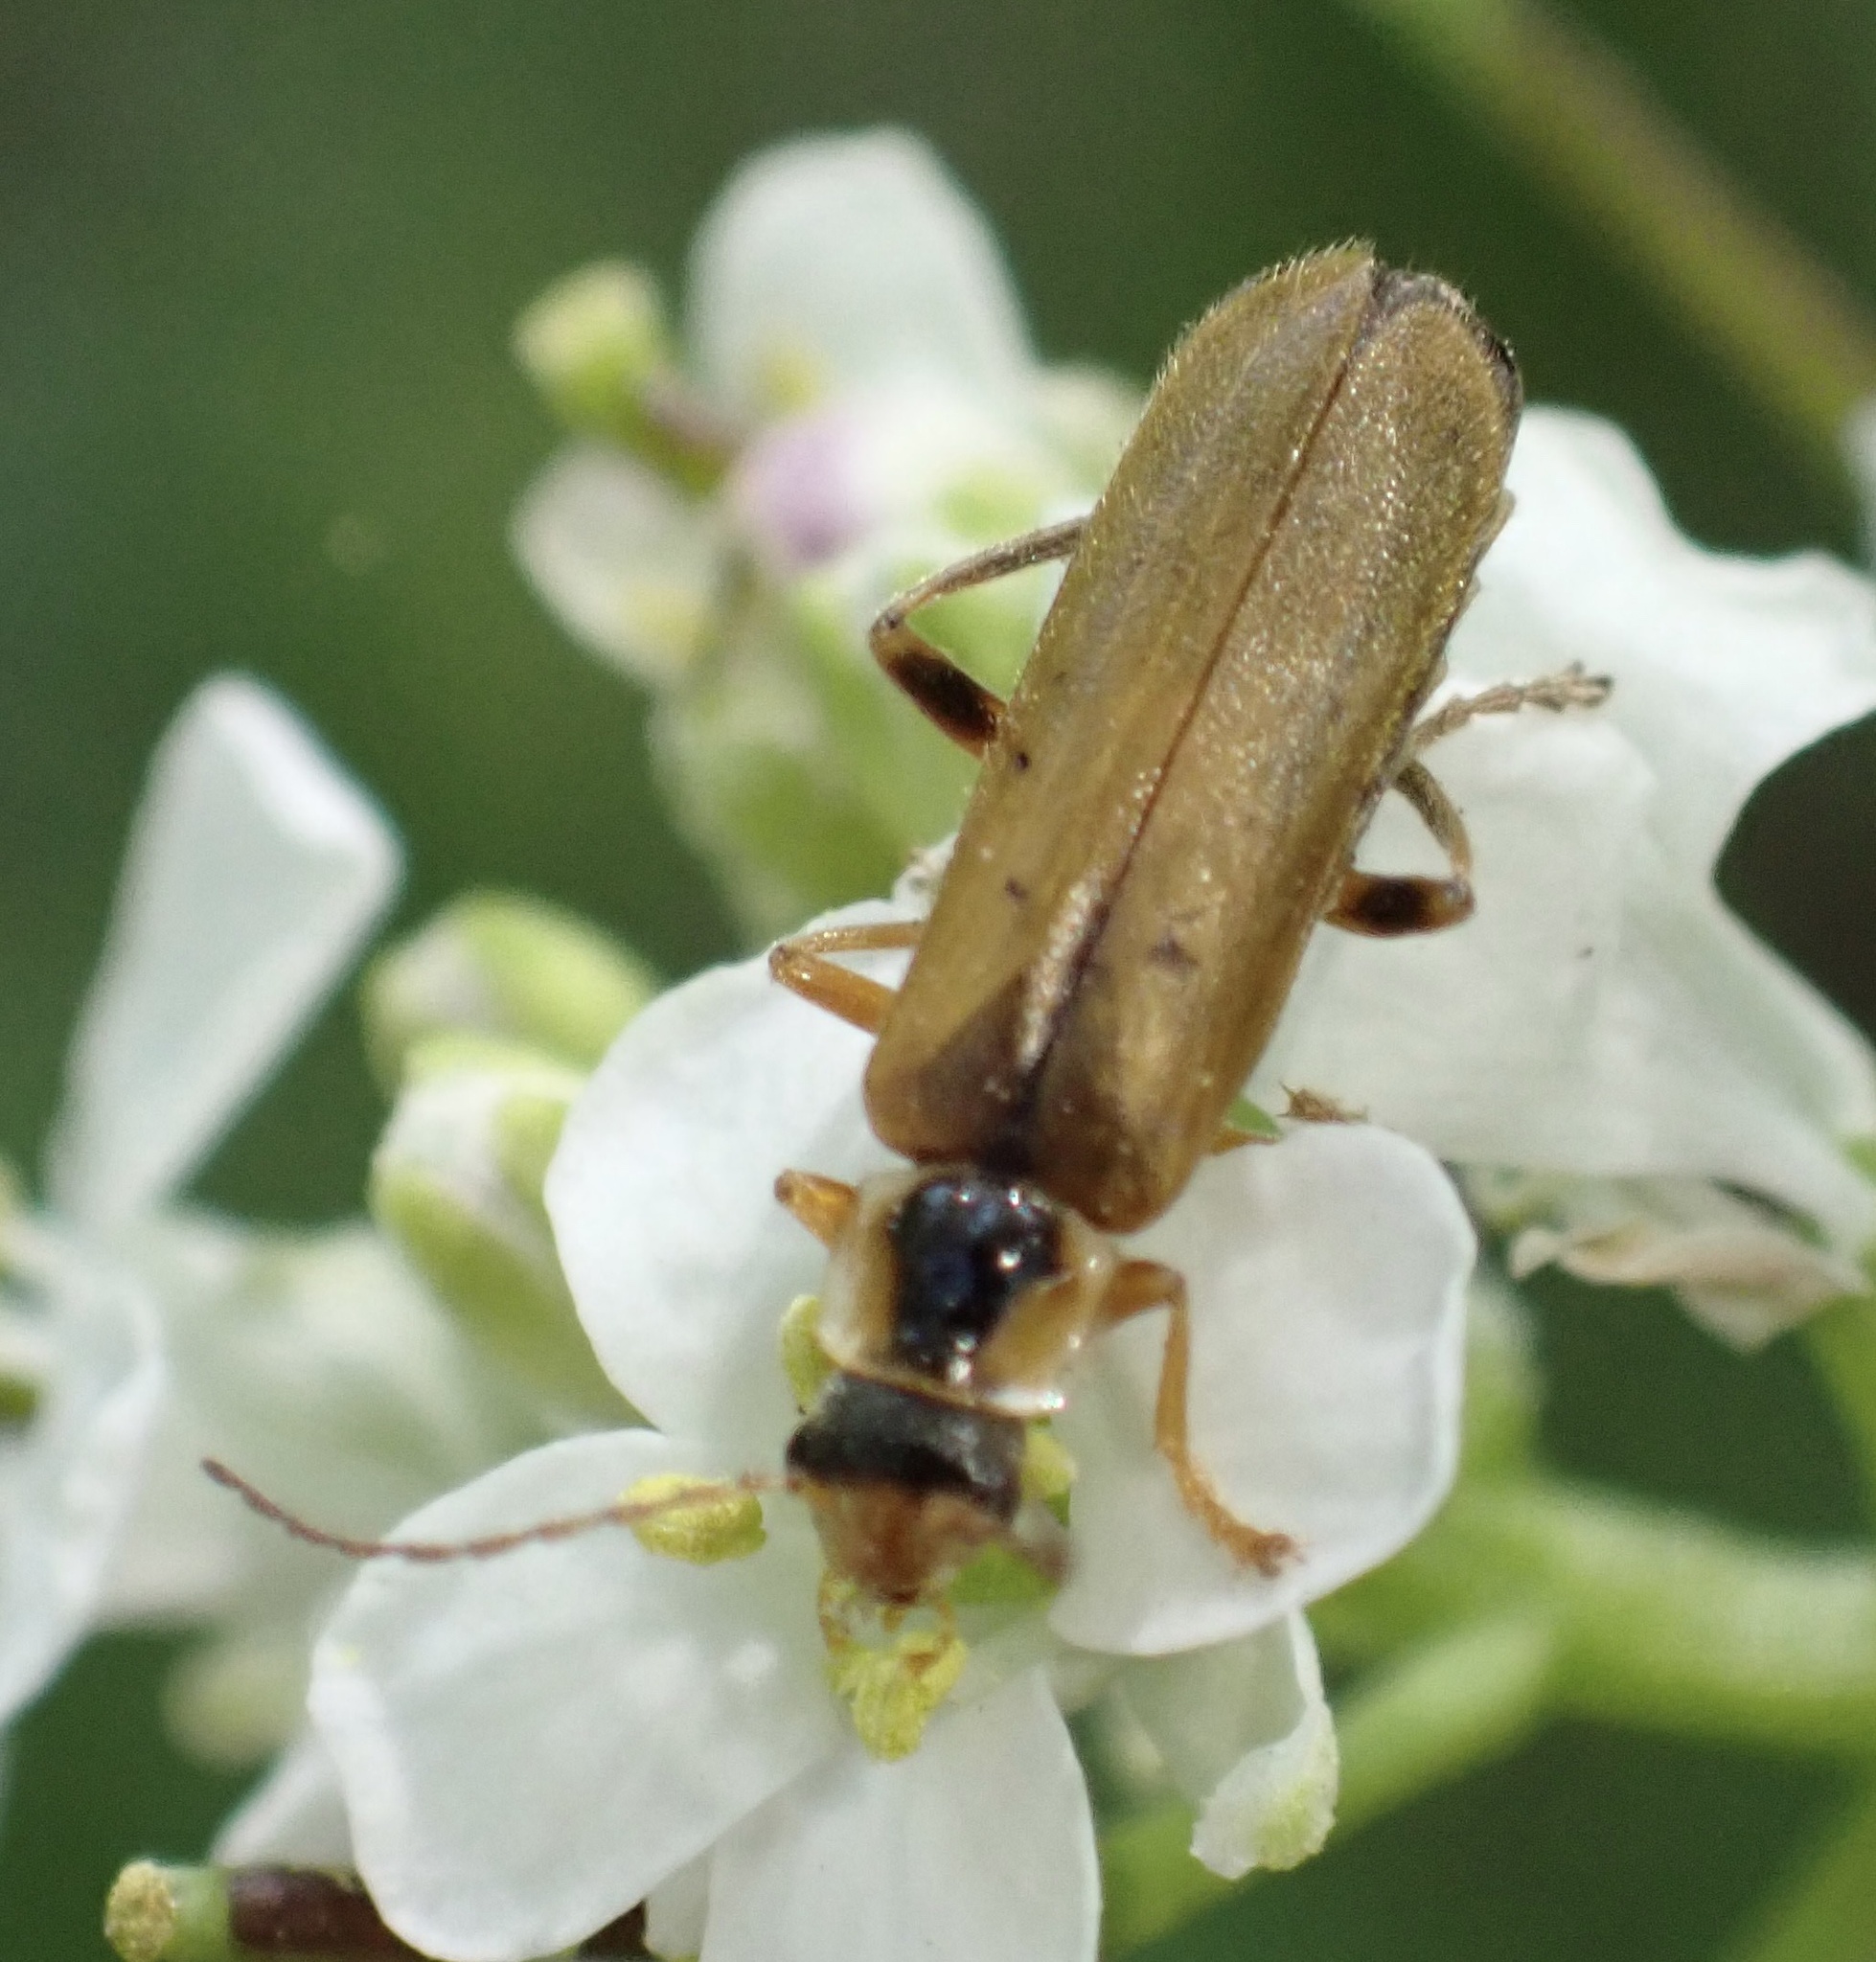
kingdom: Animalia
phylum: Arthropoda
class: Insecta
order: Coleoptera
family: Cantharidae
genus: Cantharis
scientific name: Cantharis decipiens
